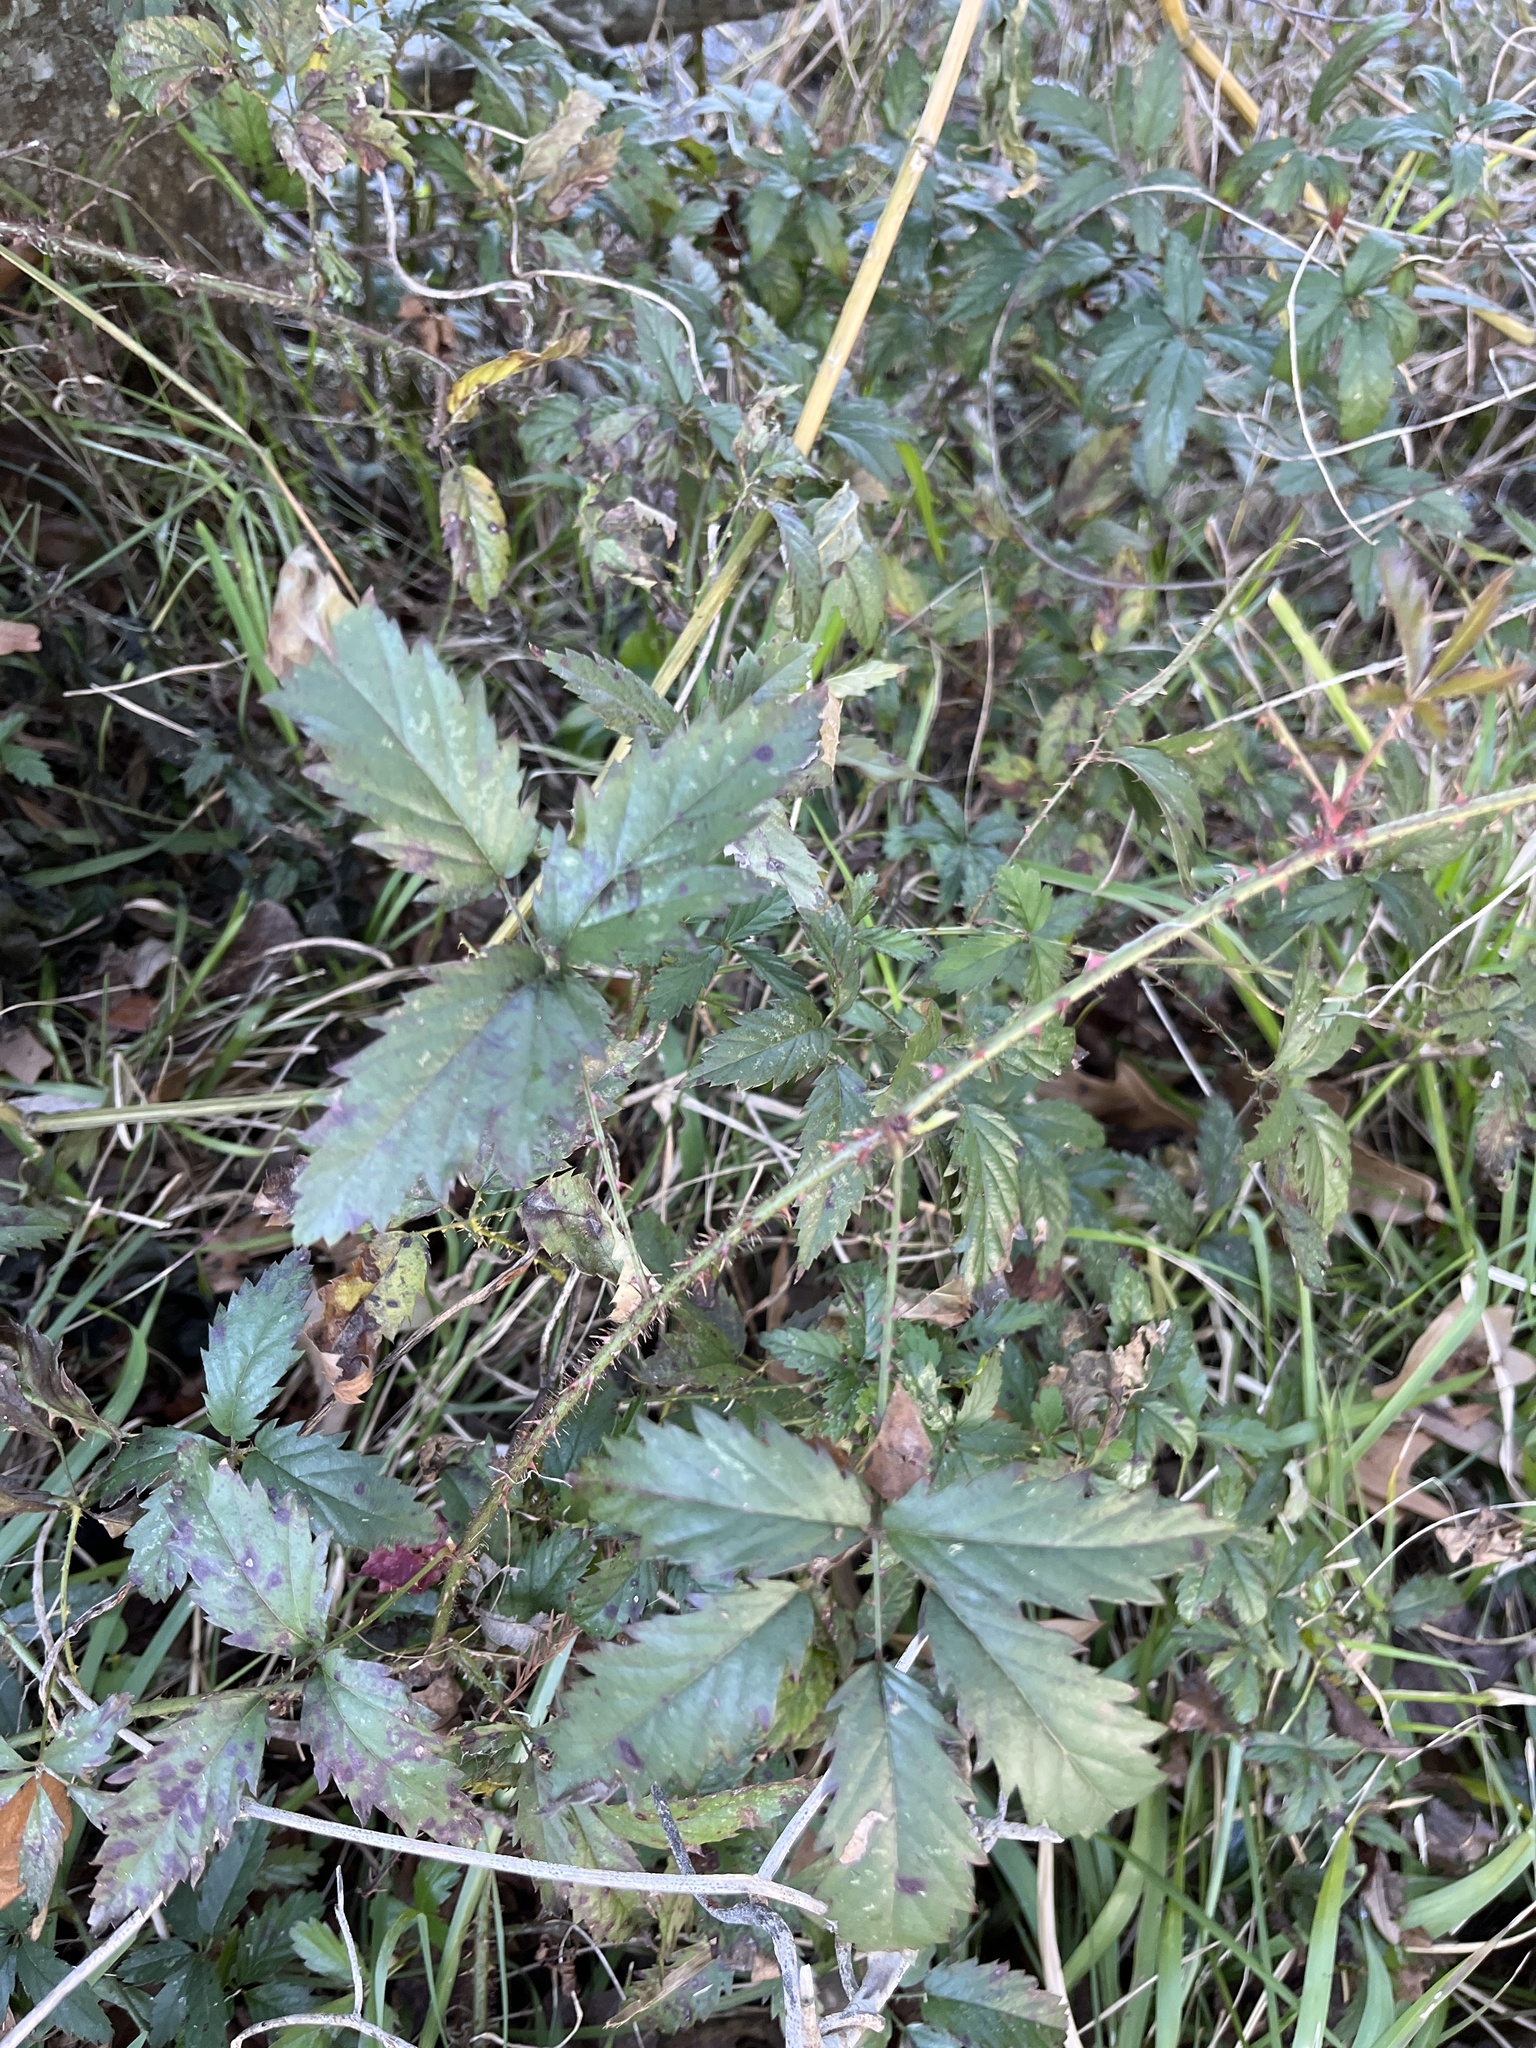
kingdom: Plantae
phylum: Tracheophyta
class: Magnoliopsida
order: Rosales
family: Rosaceae
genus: Rubus
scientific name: Rubus trivialis
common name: Southern dewberry
